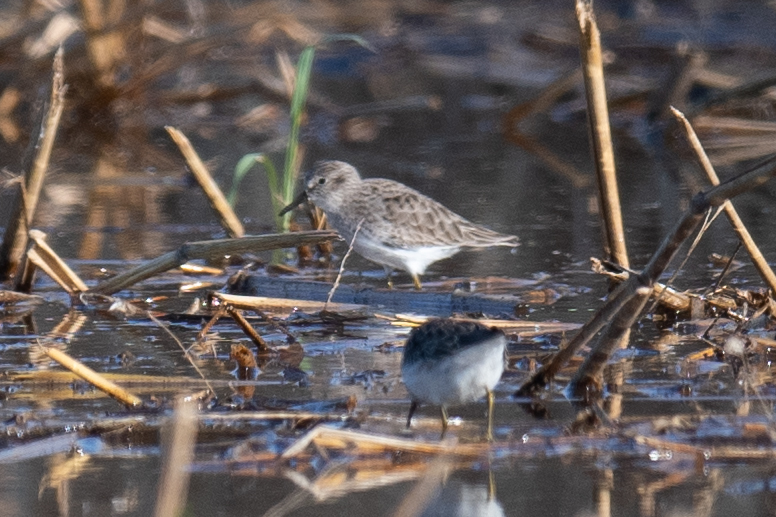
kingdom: Animalia
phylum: Chordata
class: Aves
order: Charadriiformes
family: Scolopacidae
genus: Calidris
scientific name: Calidris minutilla
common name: Least sandpiper
